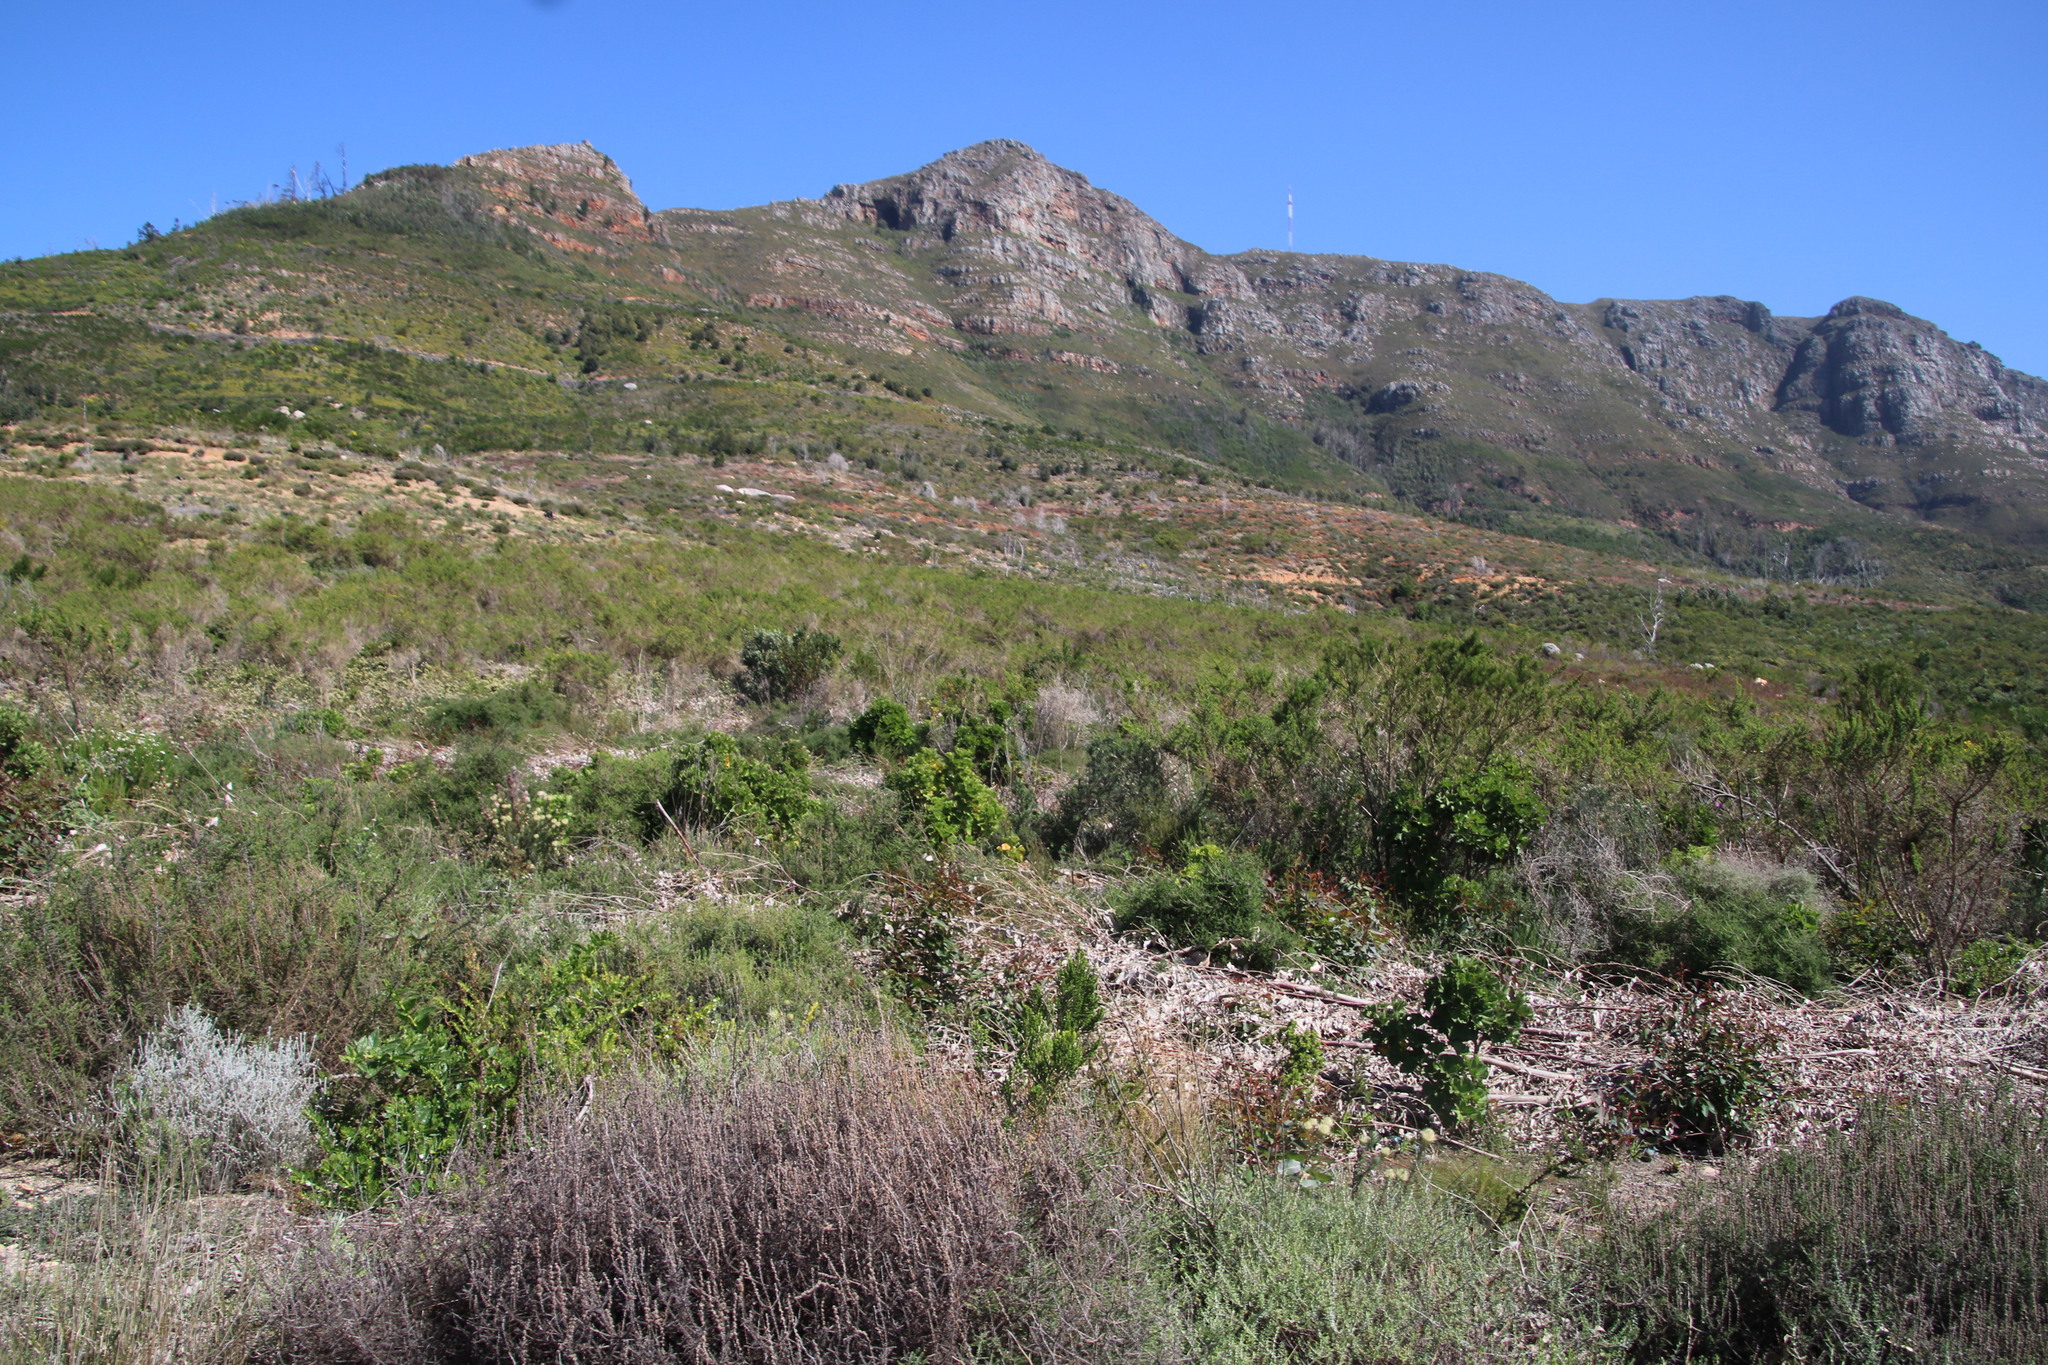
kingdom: Plantae
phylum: Tracheophyta
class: Magnoliopsida
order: Fabales
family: Fabaceae
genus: Aspalathus
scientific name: Aspalathus astroites
